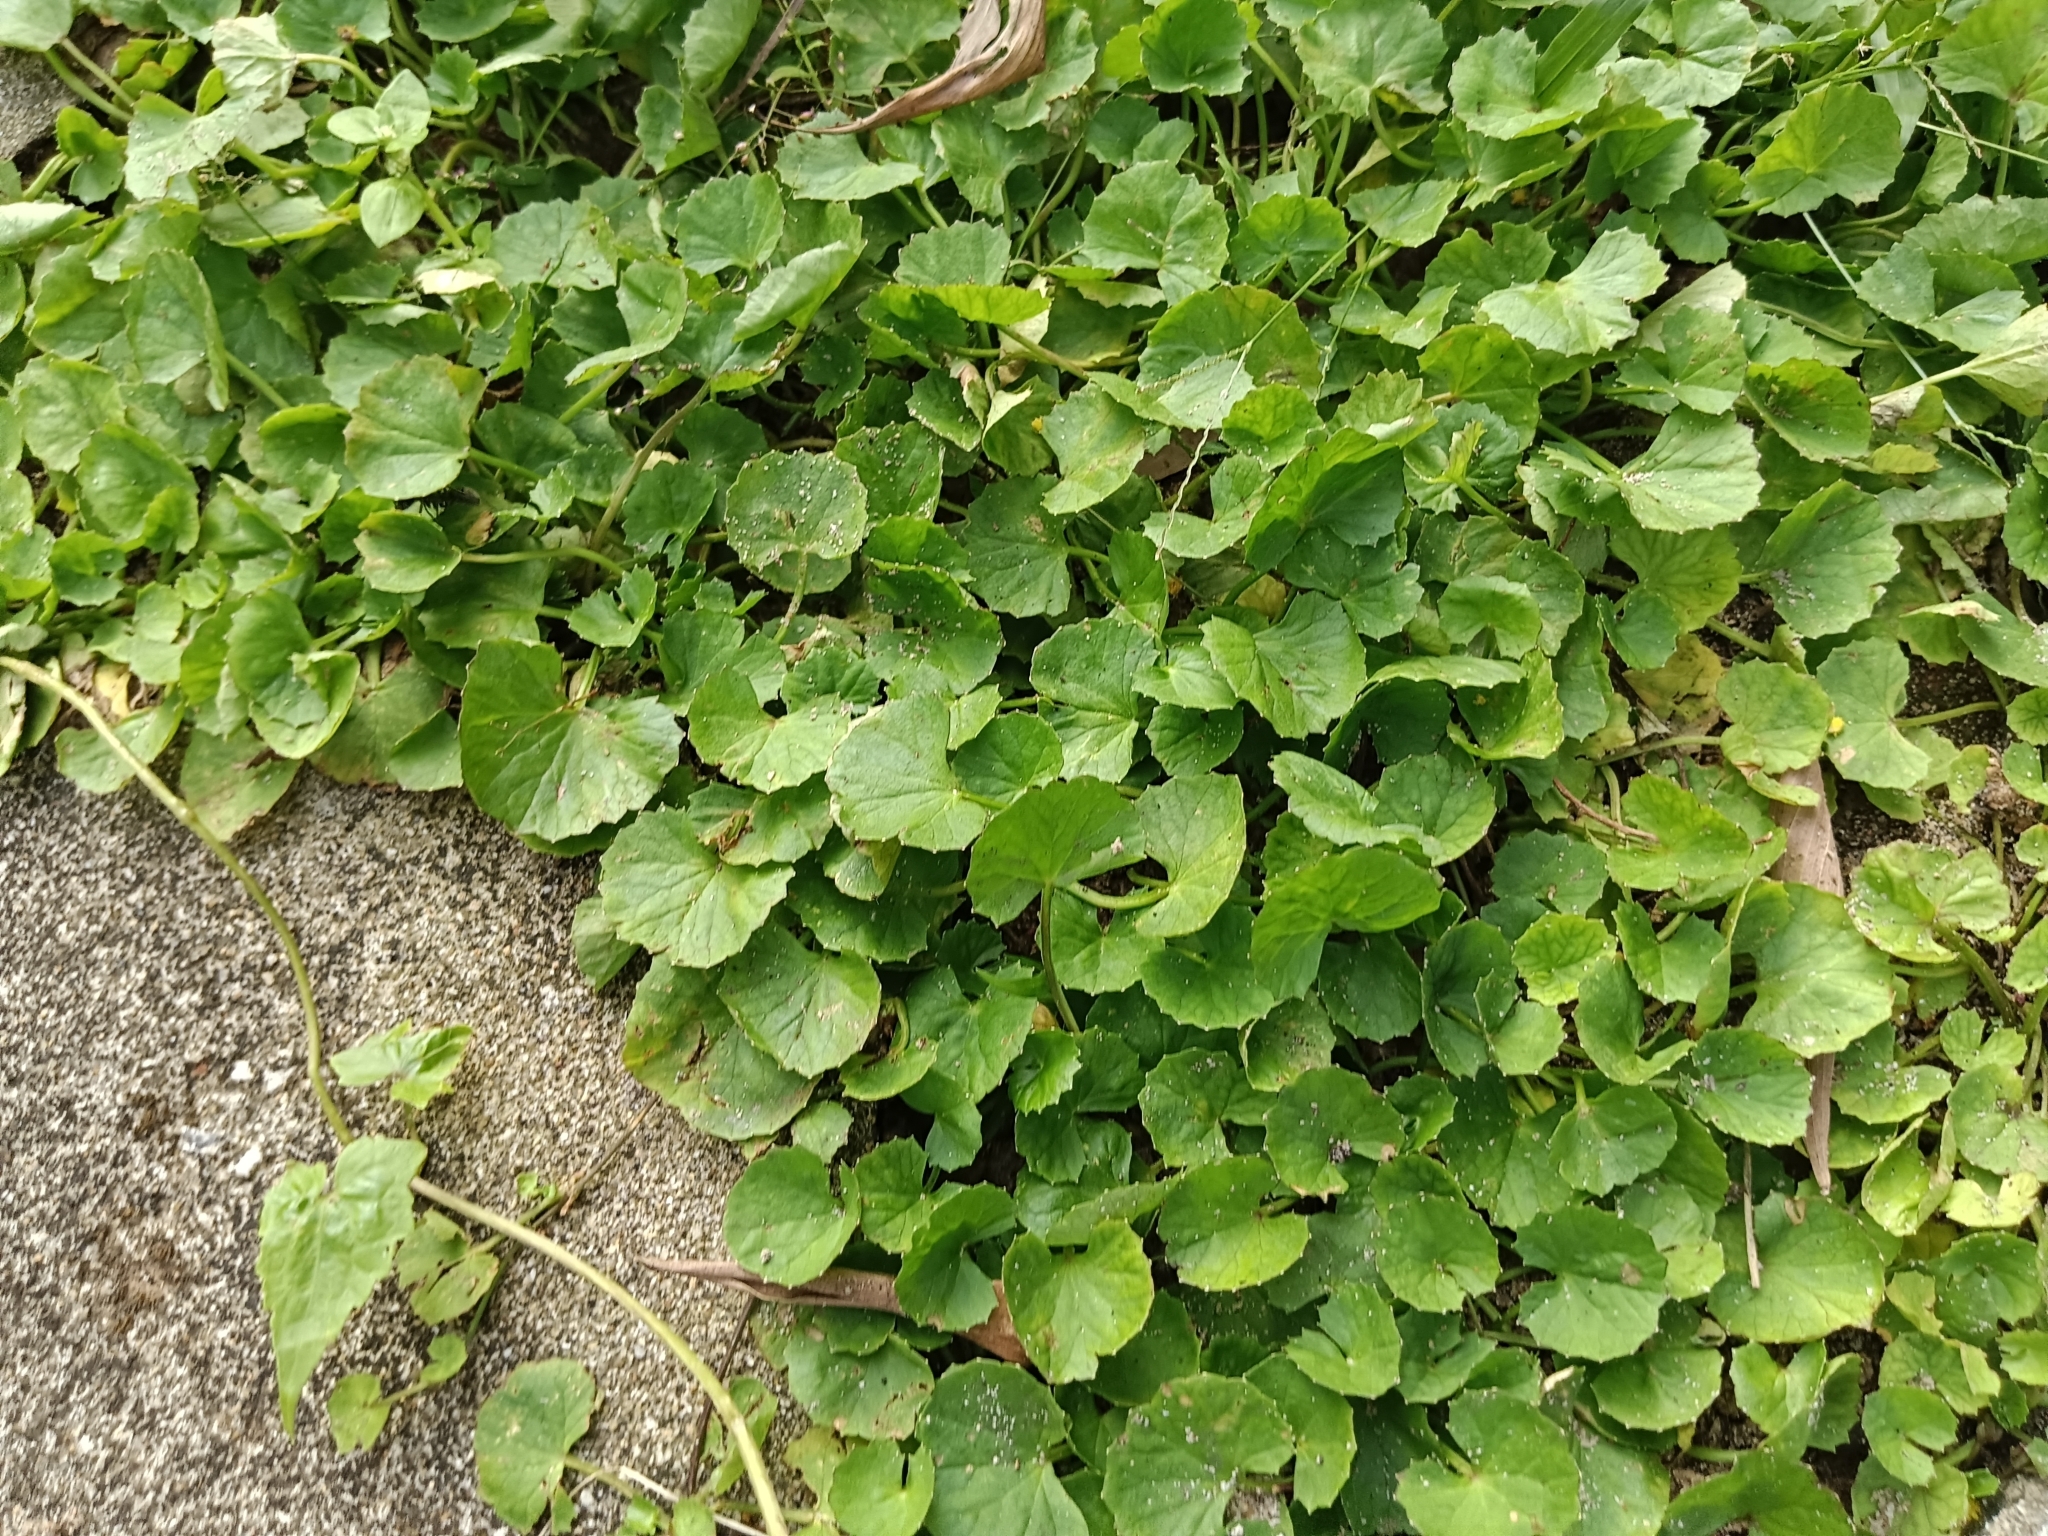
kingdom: Plantae
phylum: Tracheophyta
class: Magnoliopsida
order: Apiales
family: Apiaceae
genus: Centella
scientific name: Centella asiatica
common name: Spadeleaf
